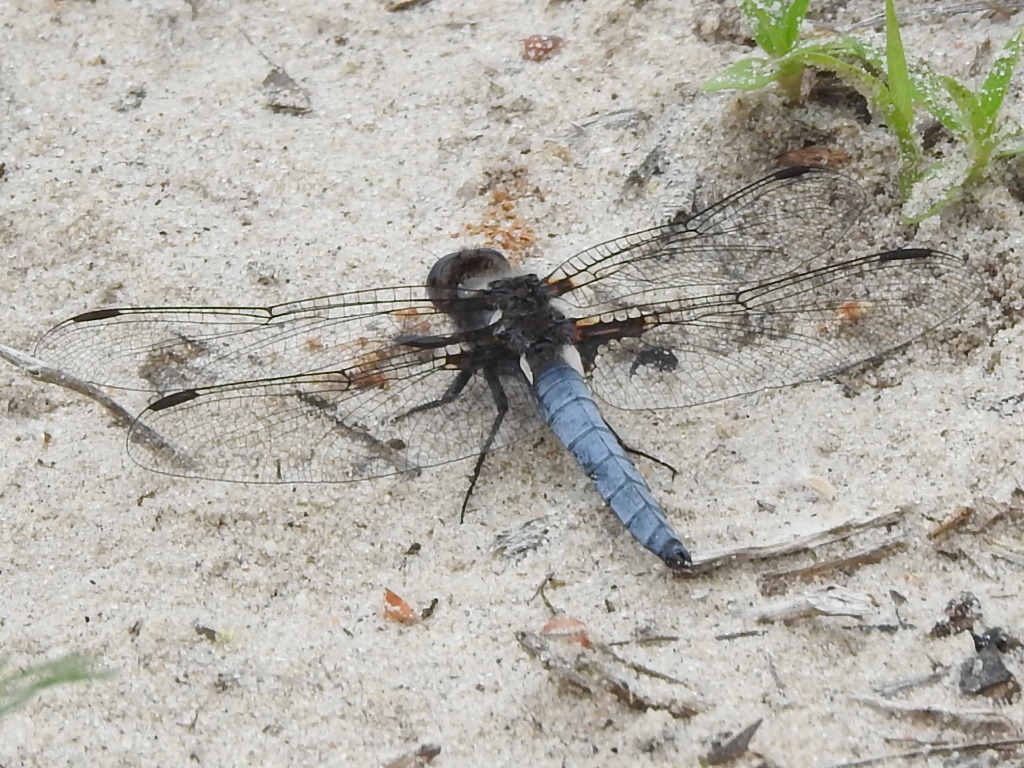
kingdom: Animalia
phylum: Arthropoda
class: Insecta
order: Odonata
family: Libellulidae
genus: Ladona
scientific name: Ladona deplanata
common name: Blue corporal
